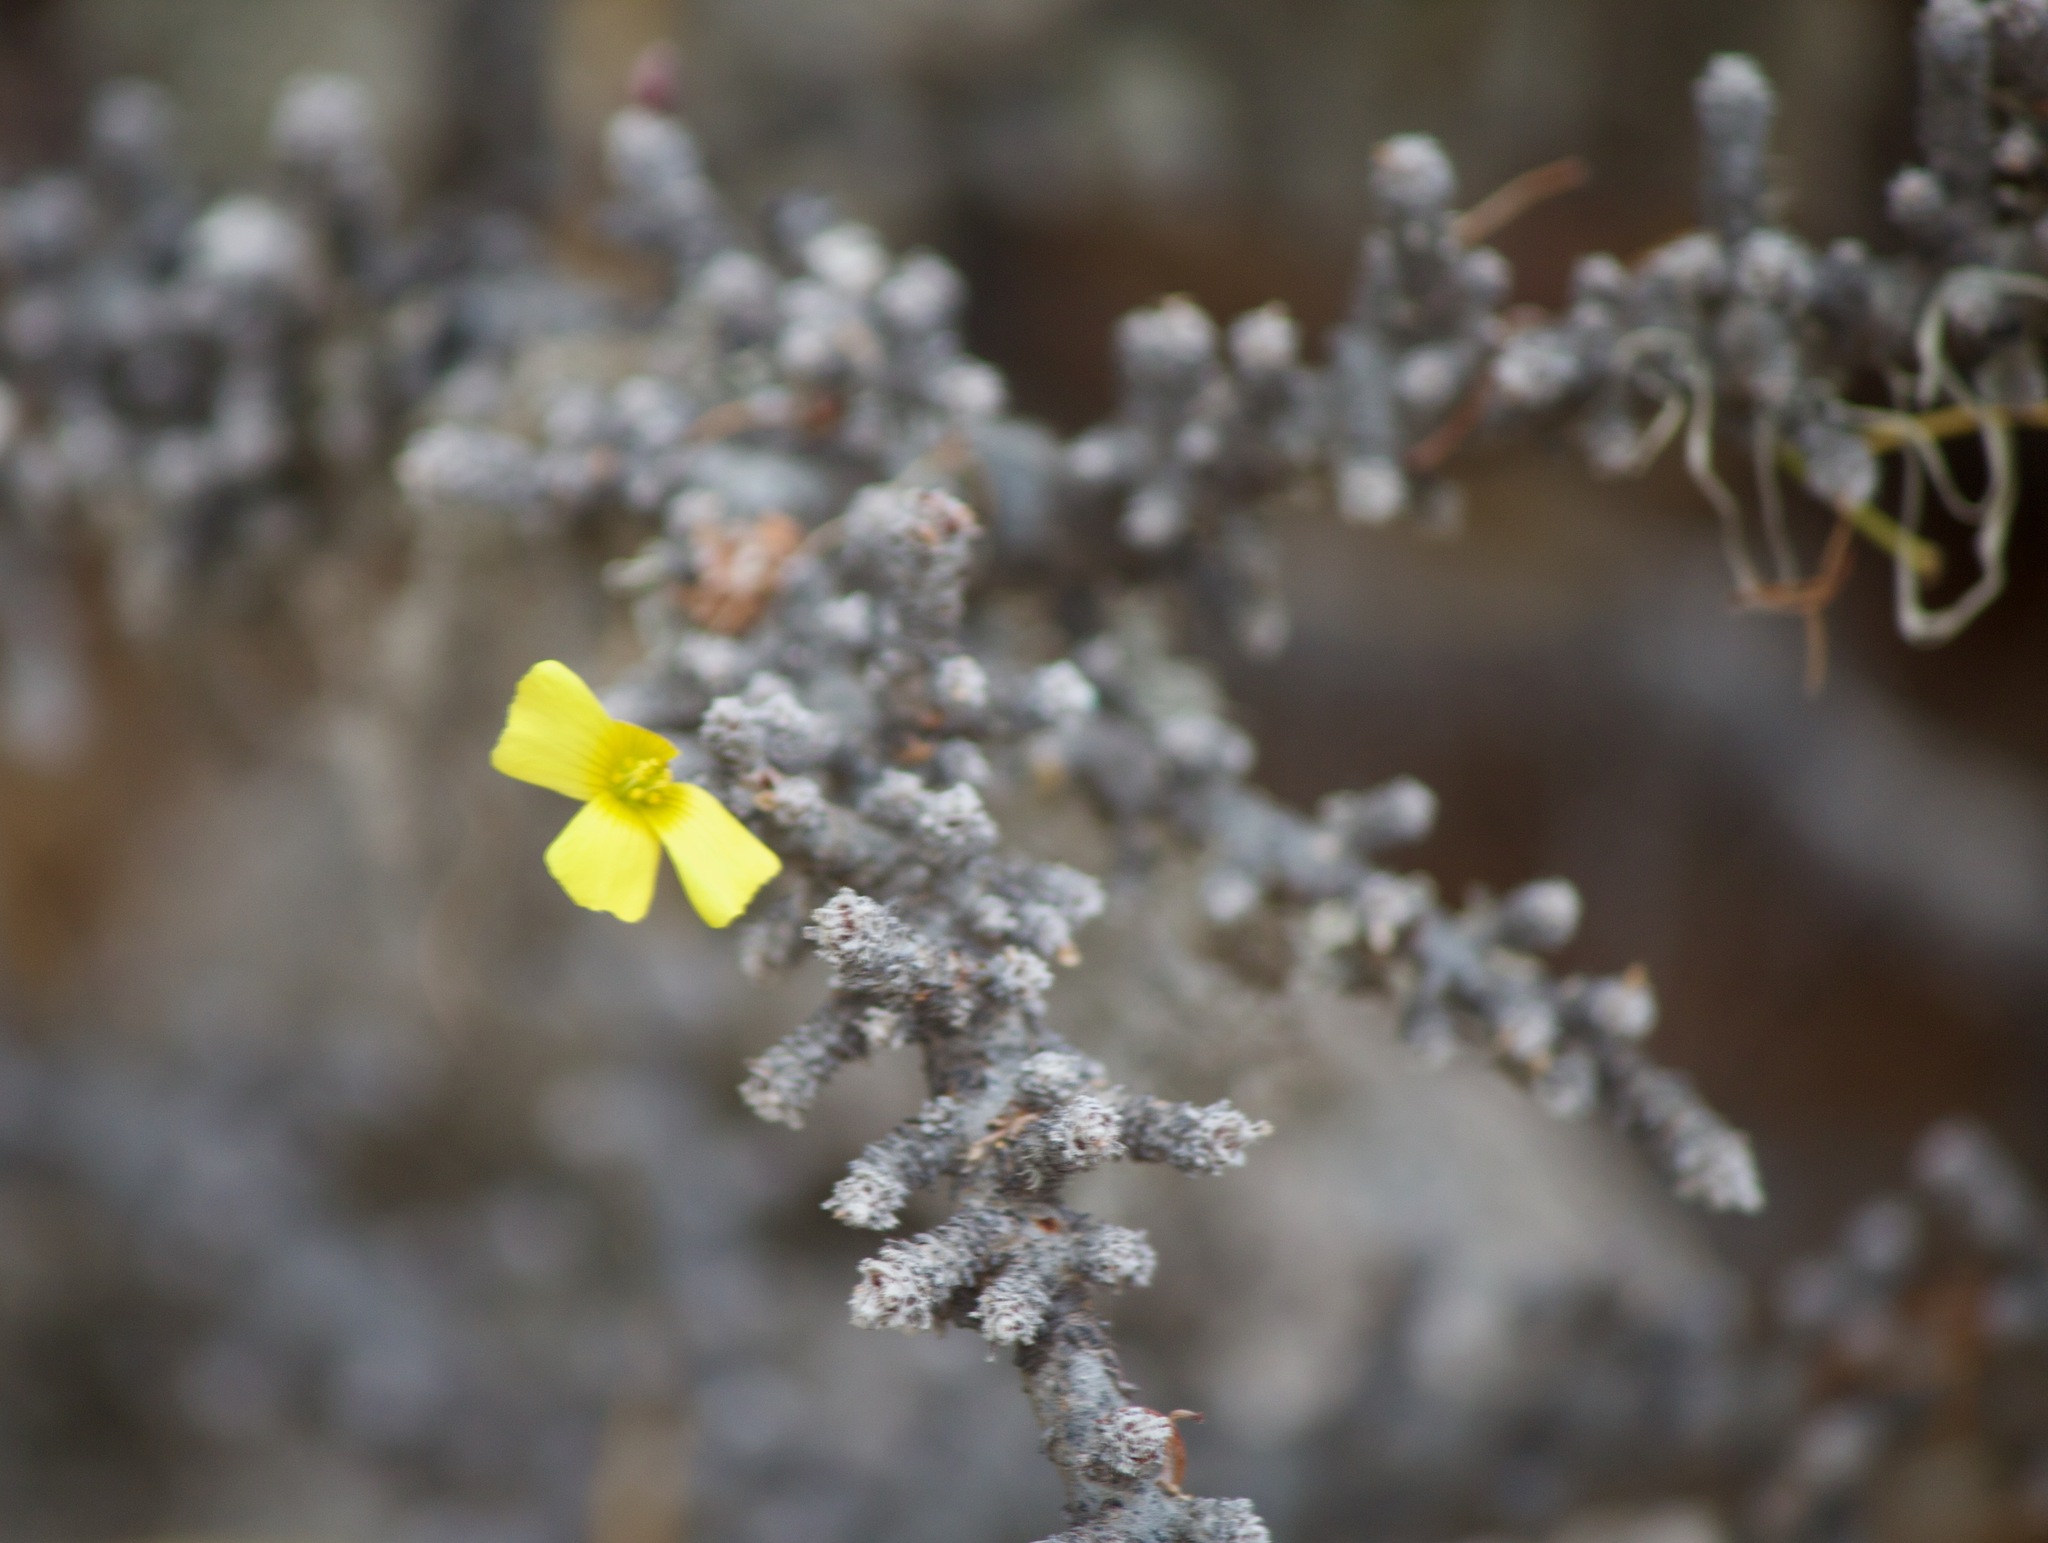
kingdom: Plantae
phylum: Tracheophyta
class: Magnoliopsida
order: Oxalidales
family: Oxalidaceae
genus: Oxalis
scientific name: Oxalis gigantea
